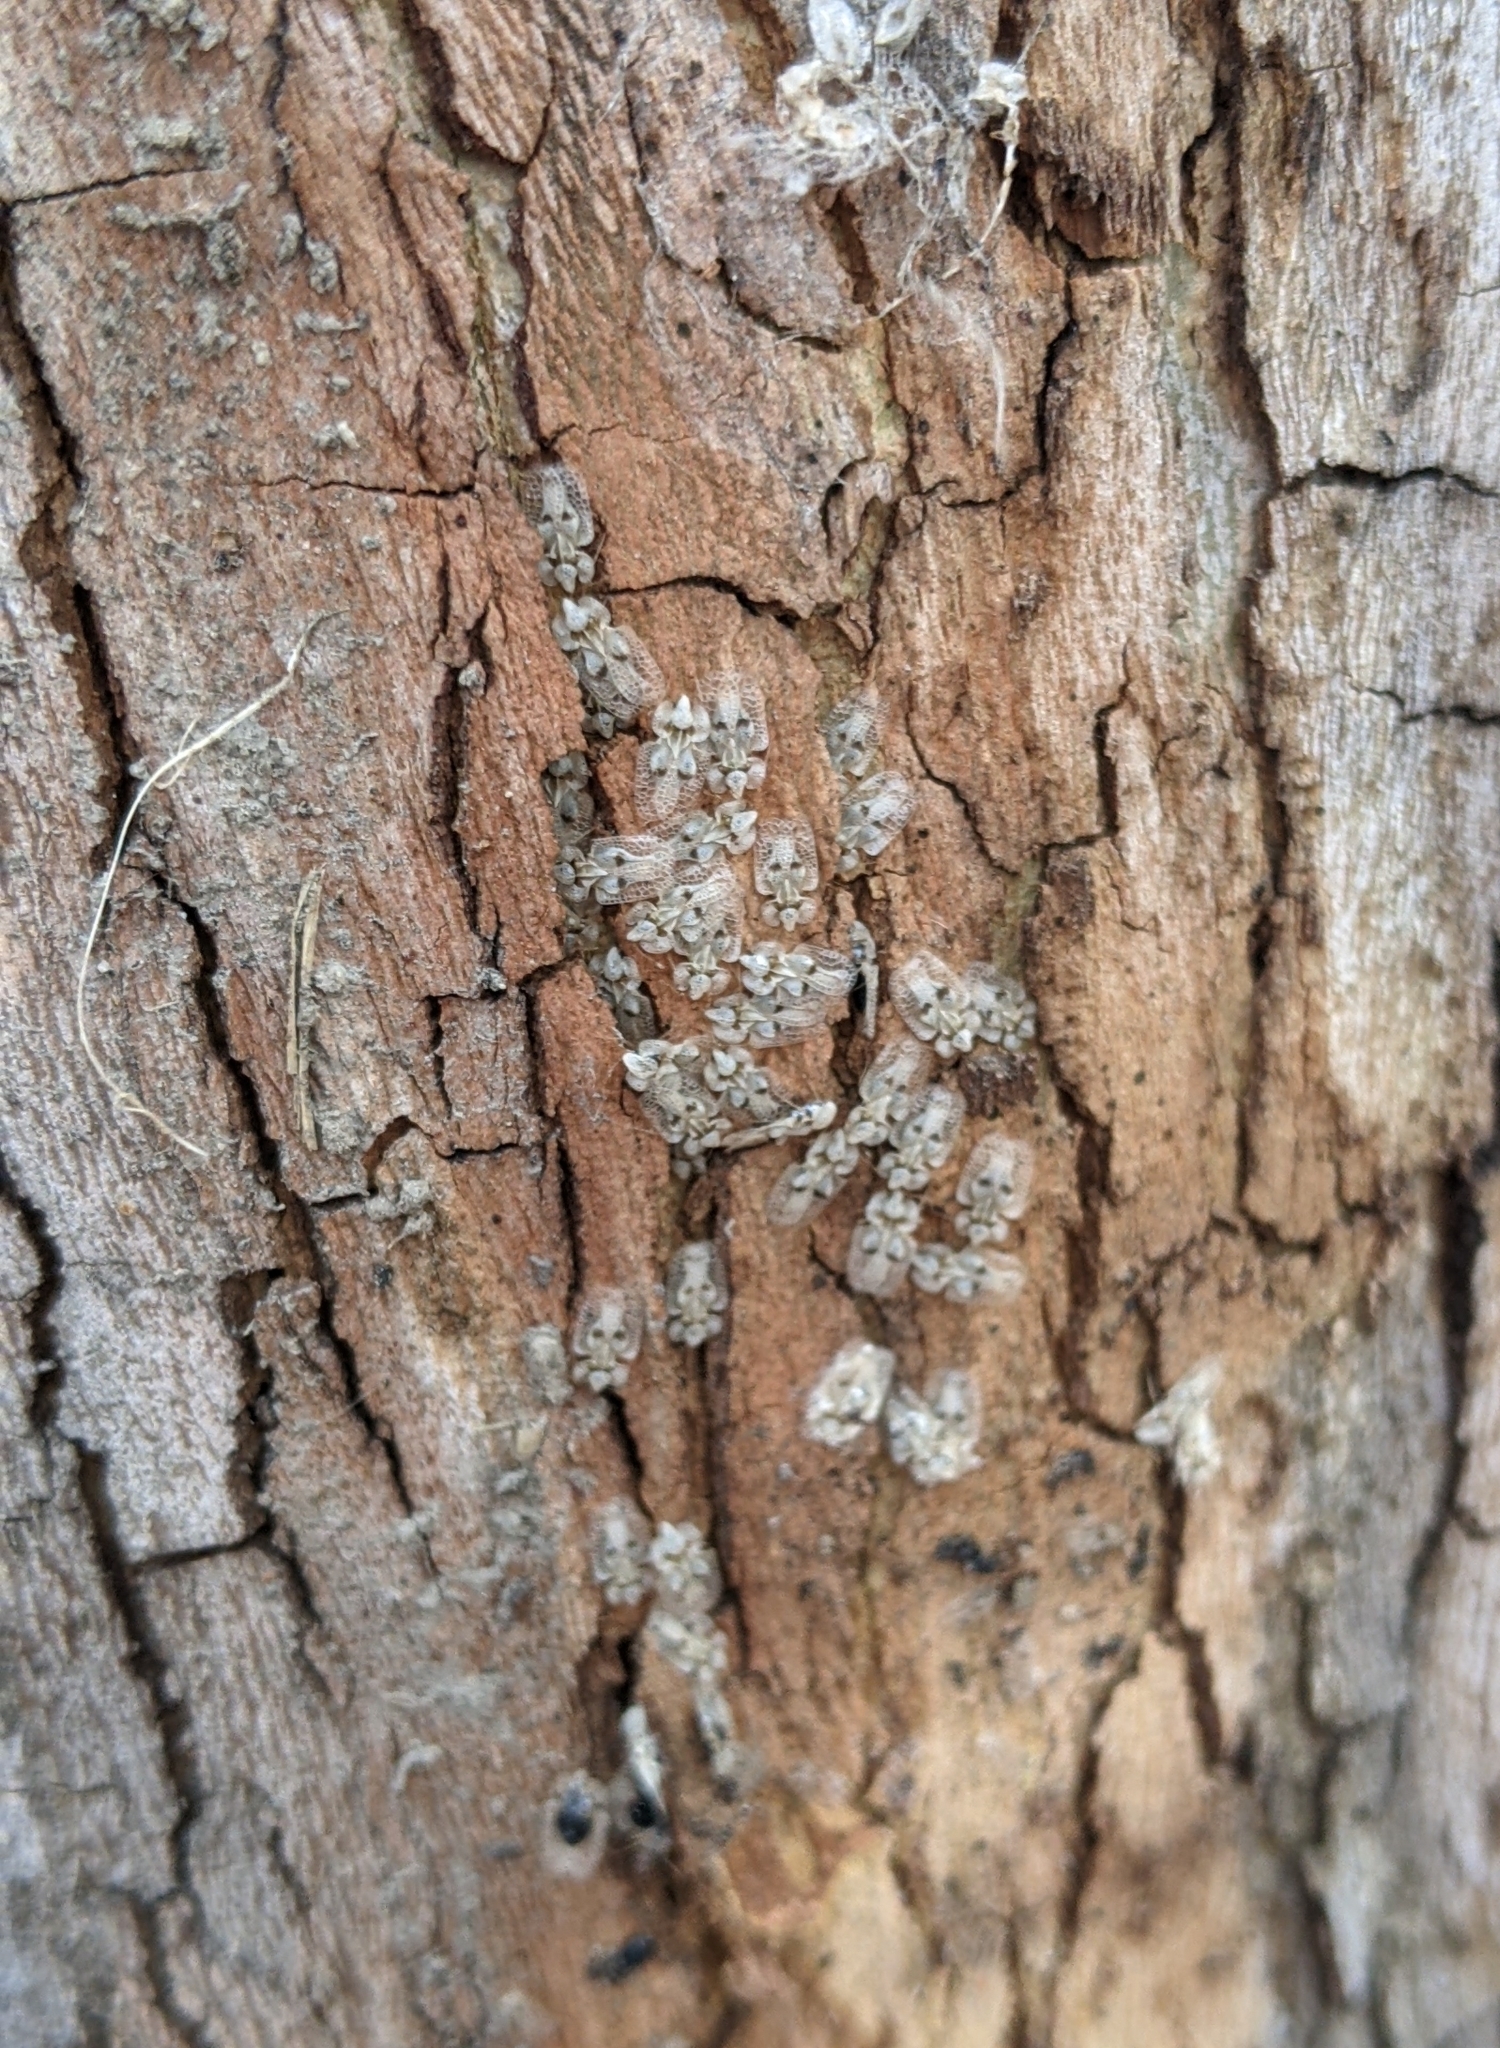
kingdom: Animalia
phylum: Arthropoda
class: Insecta
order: Hemiptera
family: Tingidae
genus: Corythucha
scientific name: Corythucha ciliata
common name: Sycamore lace bug
